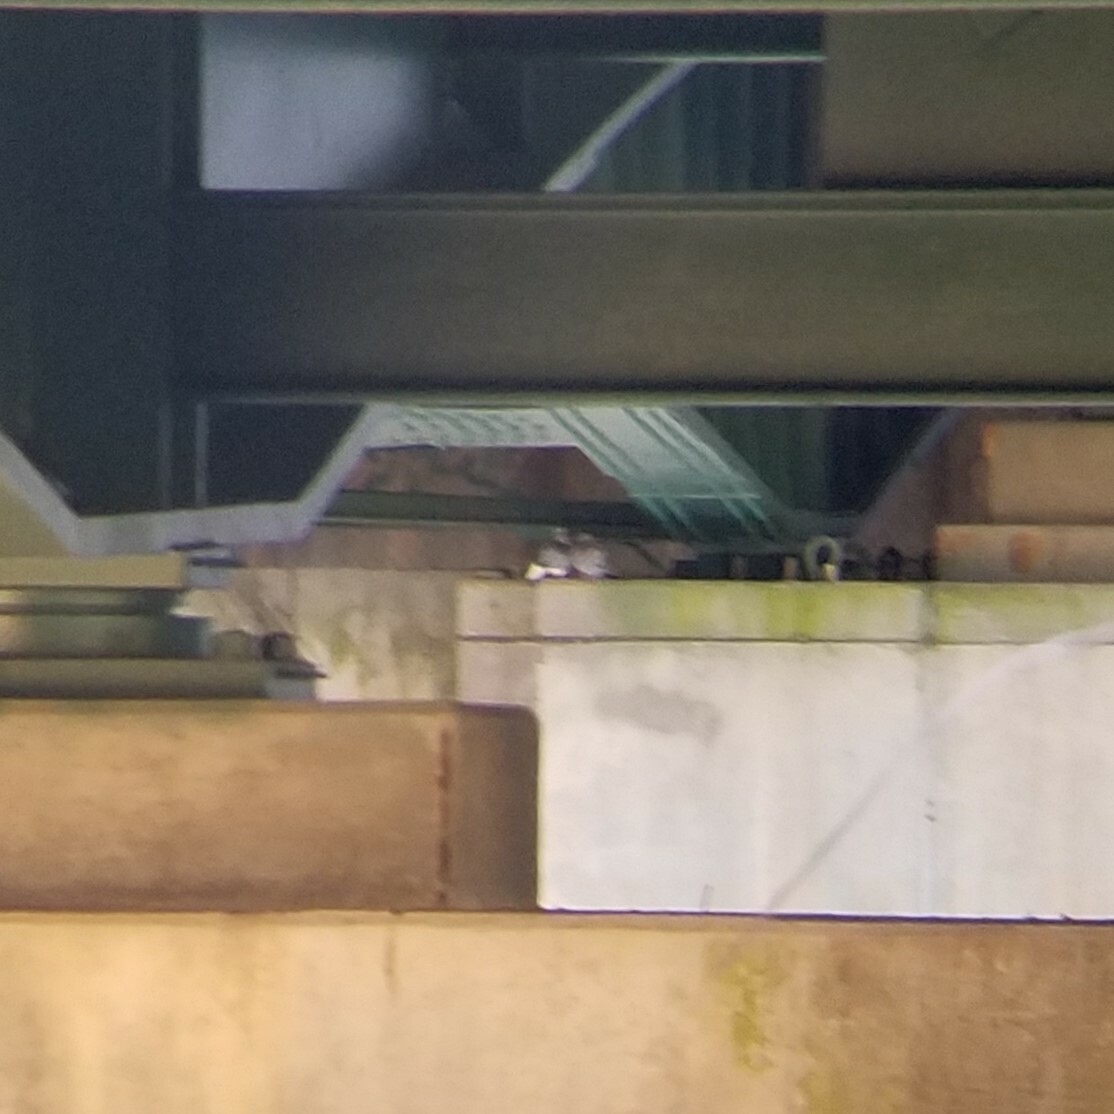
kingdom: Animalia
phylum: Chordata
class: Aves
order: Columbiformes
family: Columbidae
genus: Columba
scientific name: Columba livia
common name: Rock pigeon
